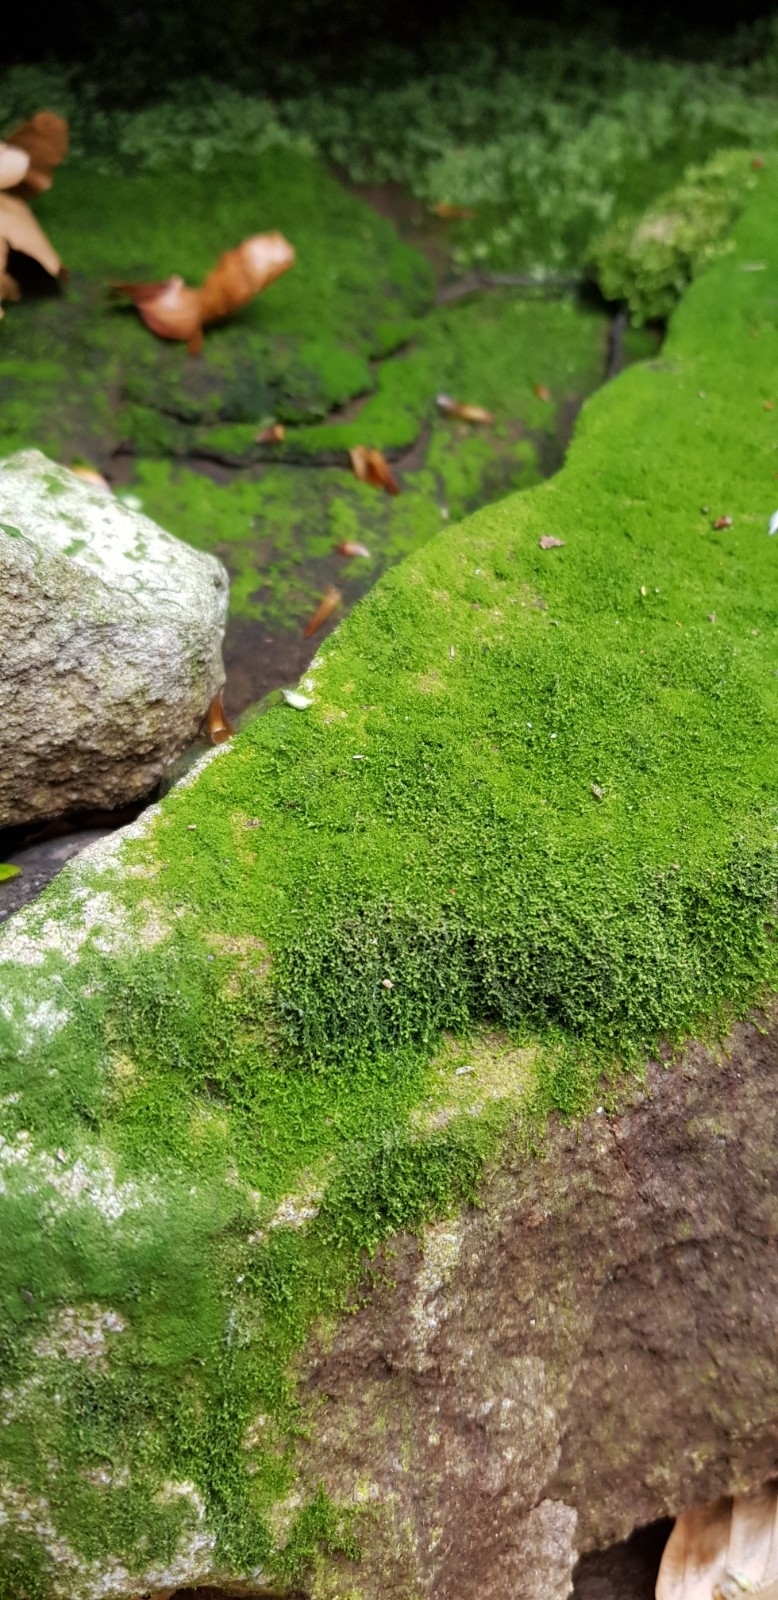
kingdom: Plantae
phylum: Marchantiophyta
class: Jungermanniopsida
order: Jungermanniales
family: Cephaloziaceae
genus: Cephalozia
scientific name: Cephalozia bicuspidata
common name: Two-horned pincerwort
